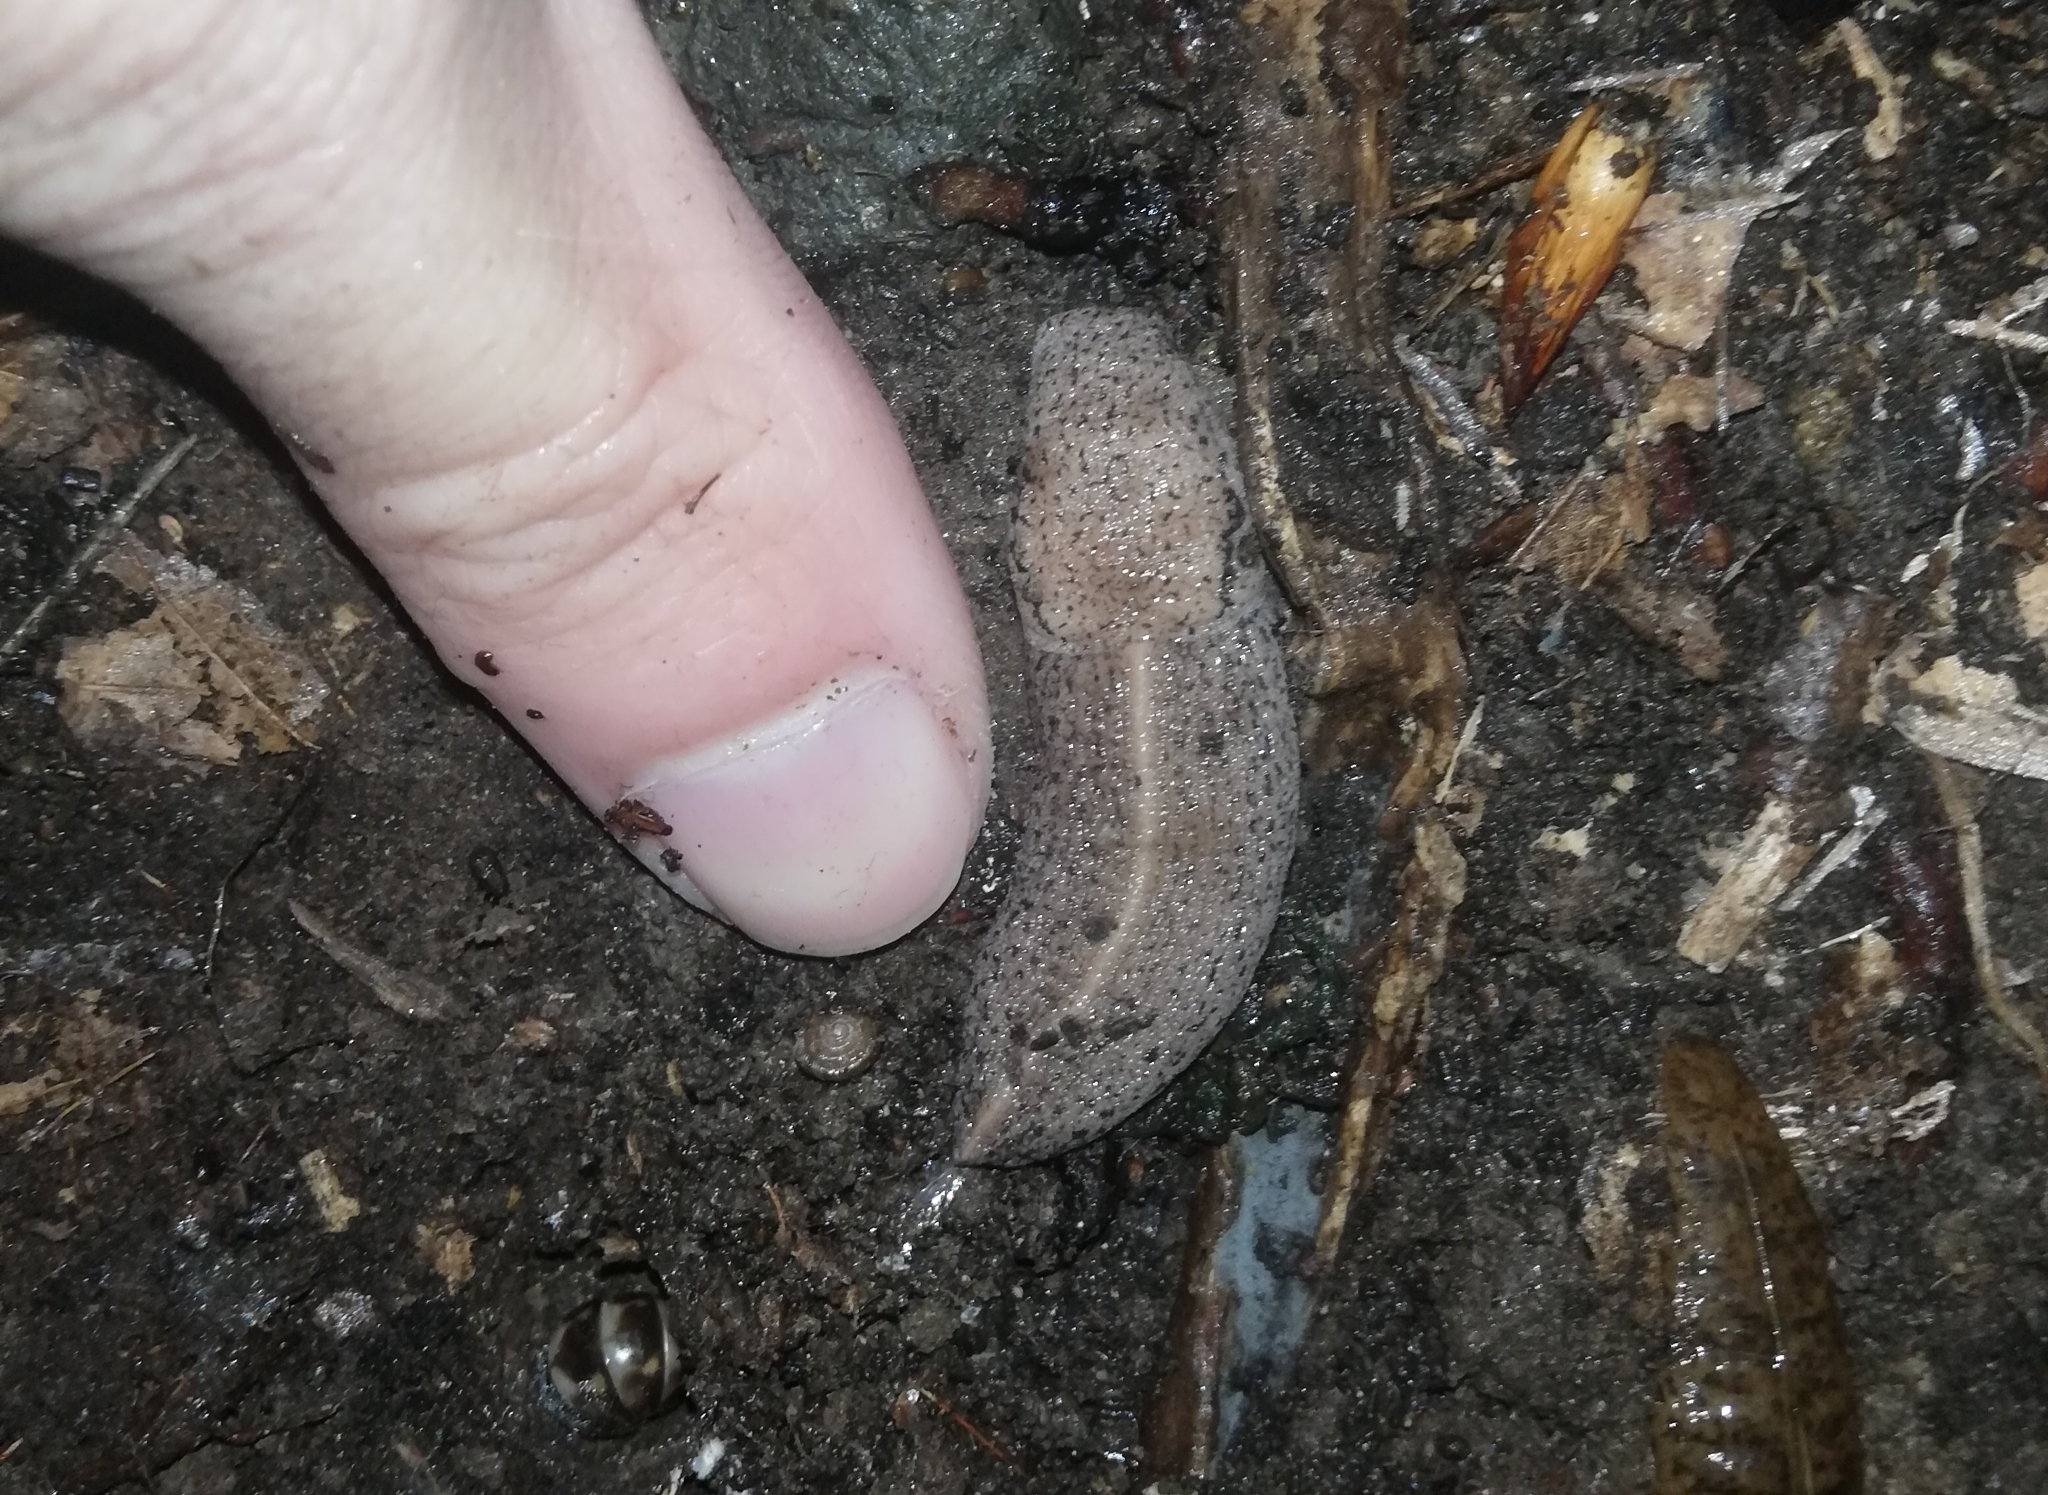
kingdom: Animalia
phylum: Mollusca
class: Gastropoda
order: Stylommatophora
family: Milacidae
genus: Tandonia
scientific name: Tandonia rustica
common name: Bulb-eating slug
